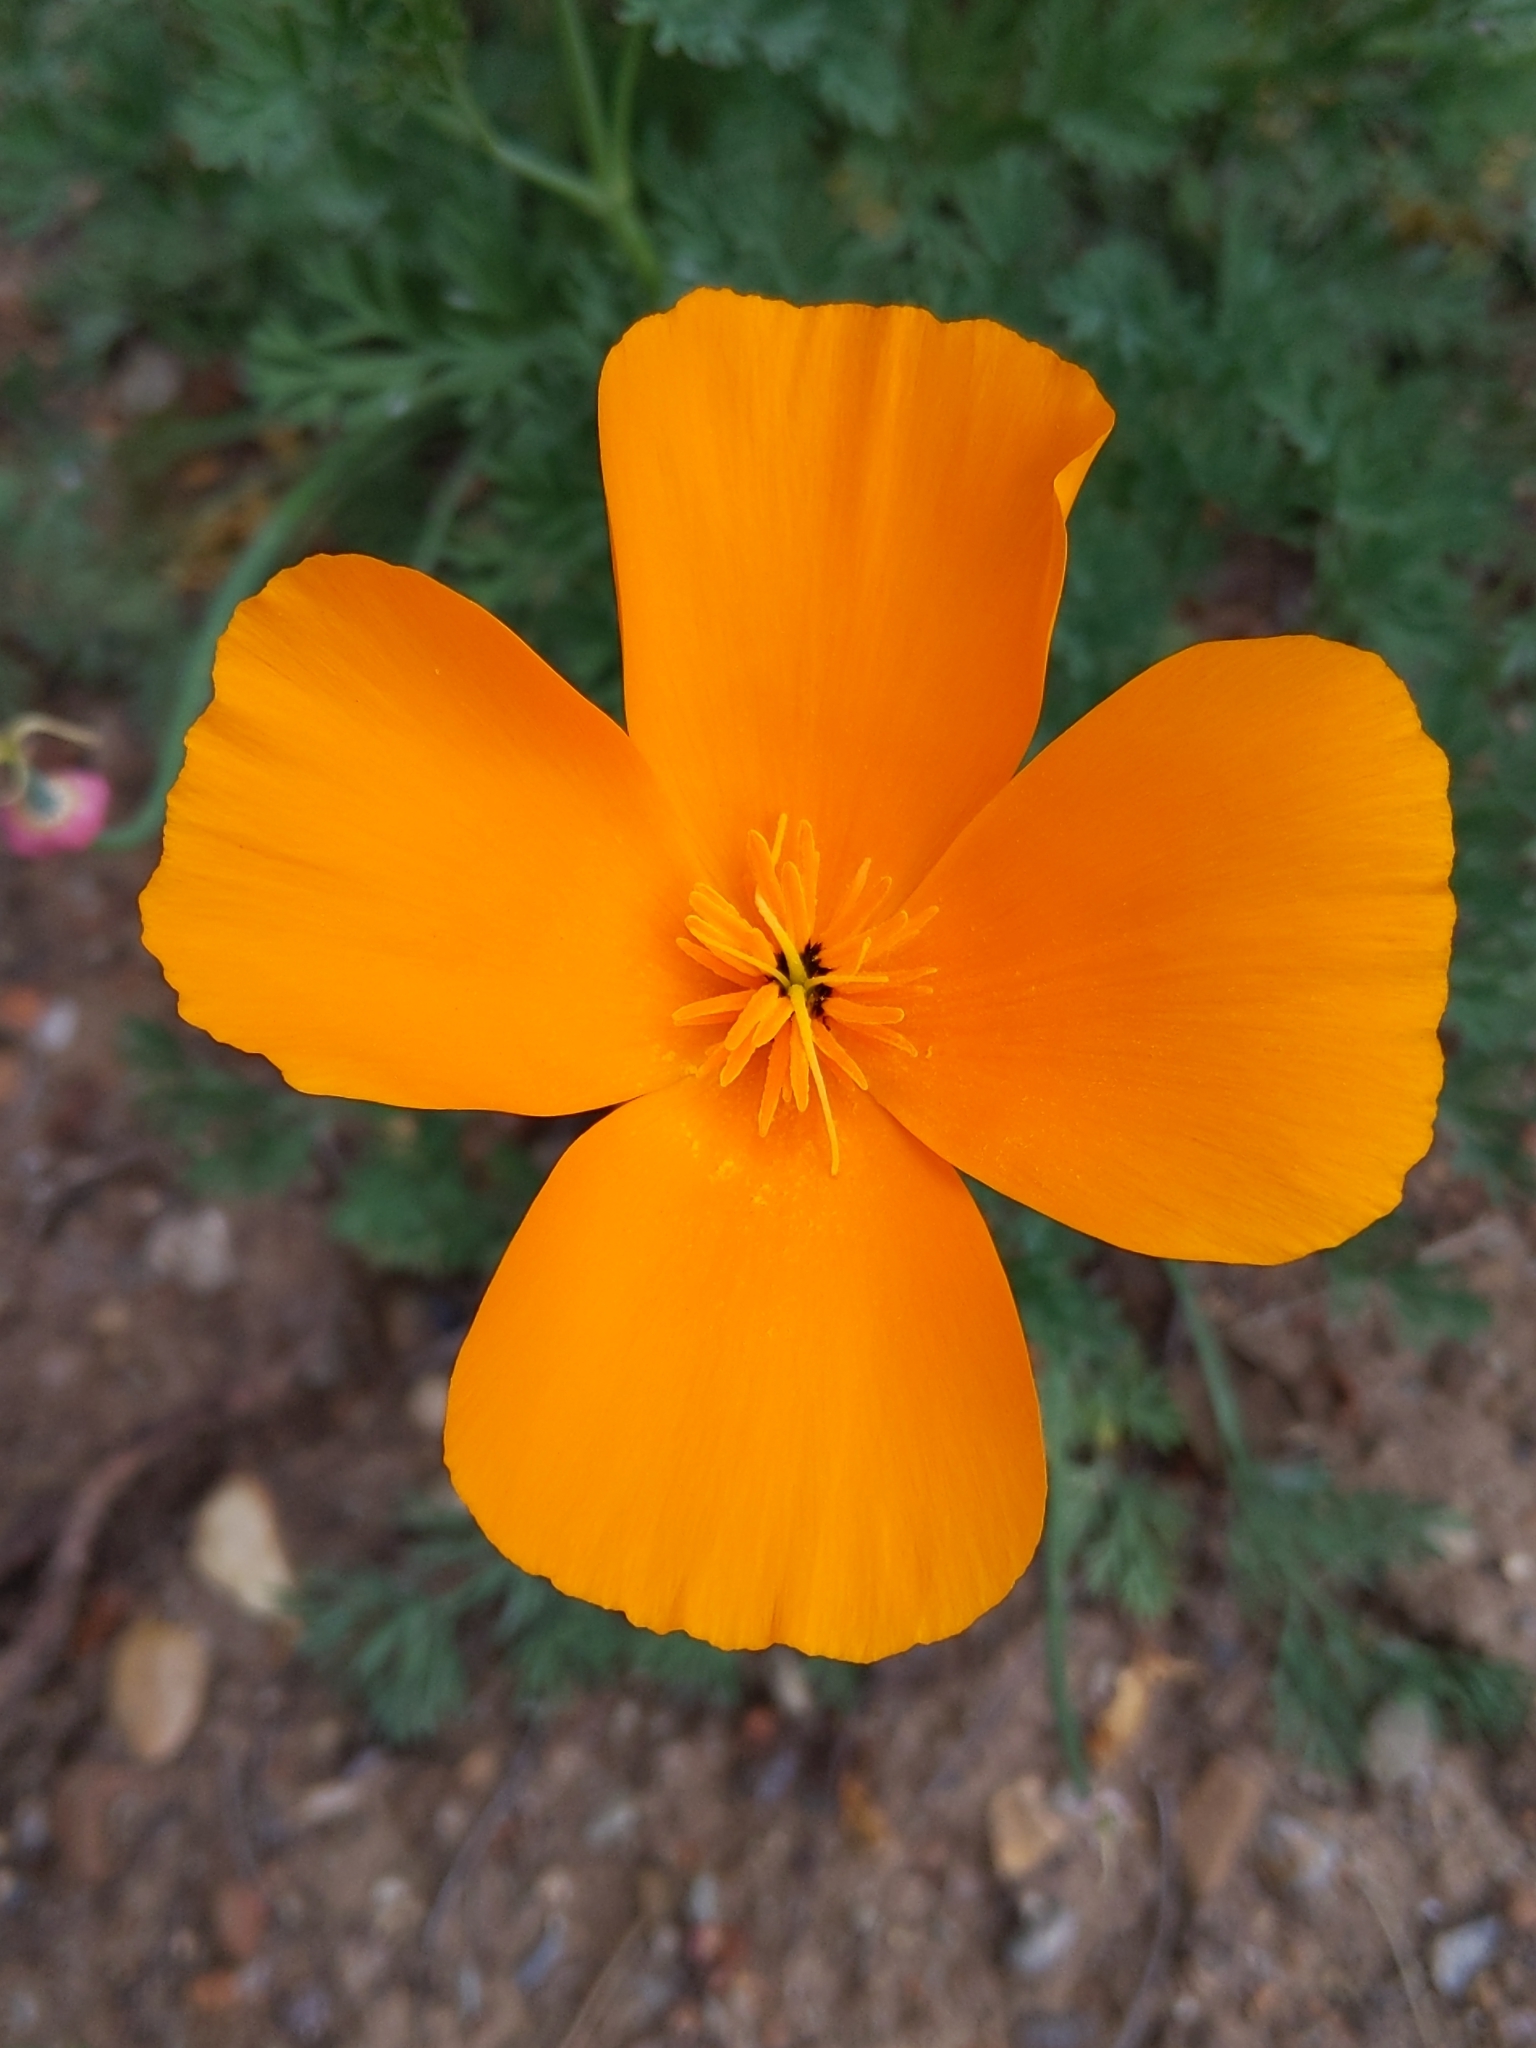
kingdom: Plantae
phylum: Tracheophyta
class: Magnoliopsida
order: Ranunculales
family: Papaveraceae
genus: Eschscholzia
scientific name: Eschscholzia californica
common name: California poppy
